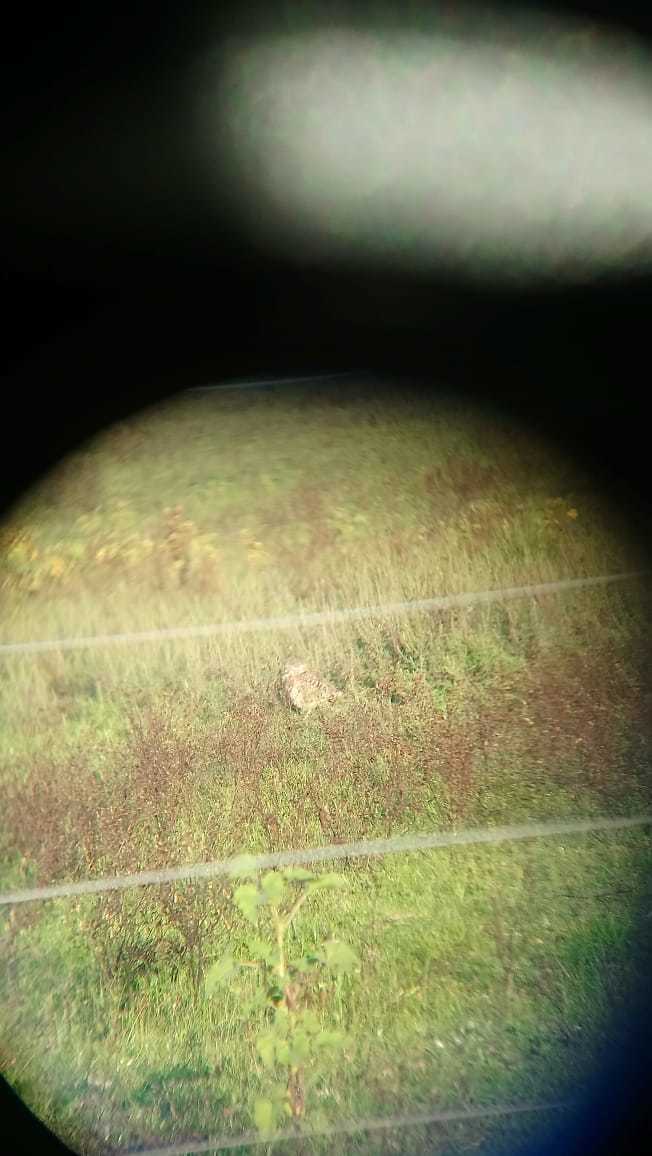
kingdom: Animalia
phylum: Chordata
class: Aves
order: Strigiformes
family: Strigidae
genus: Athene
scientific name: Athene cunicularia
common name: Burrowing owl
